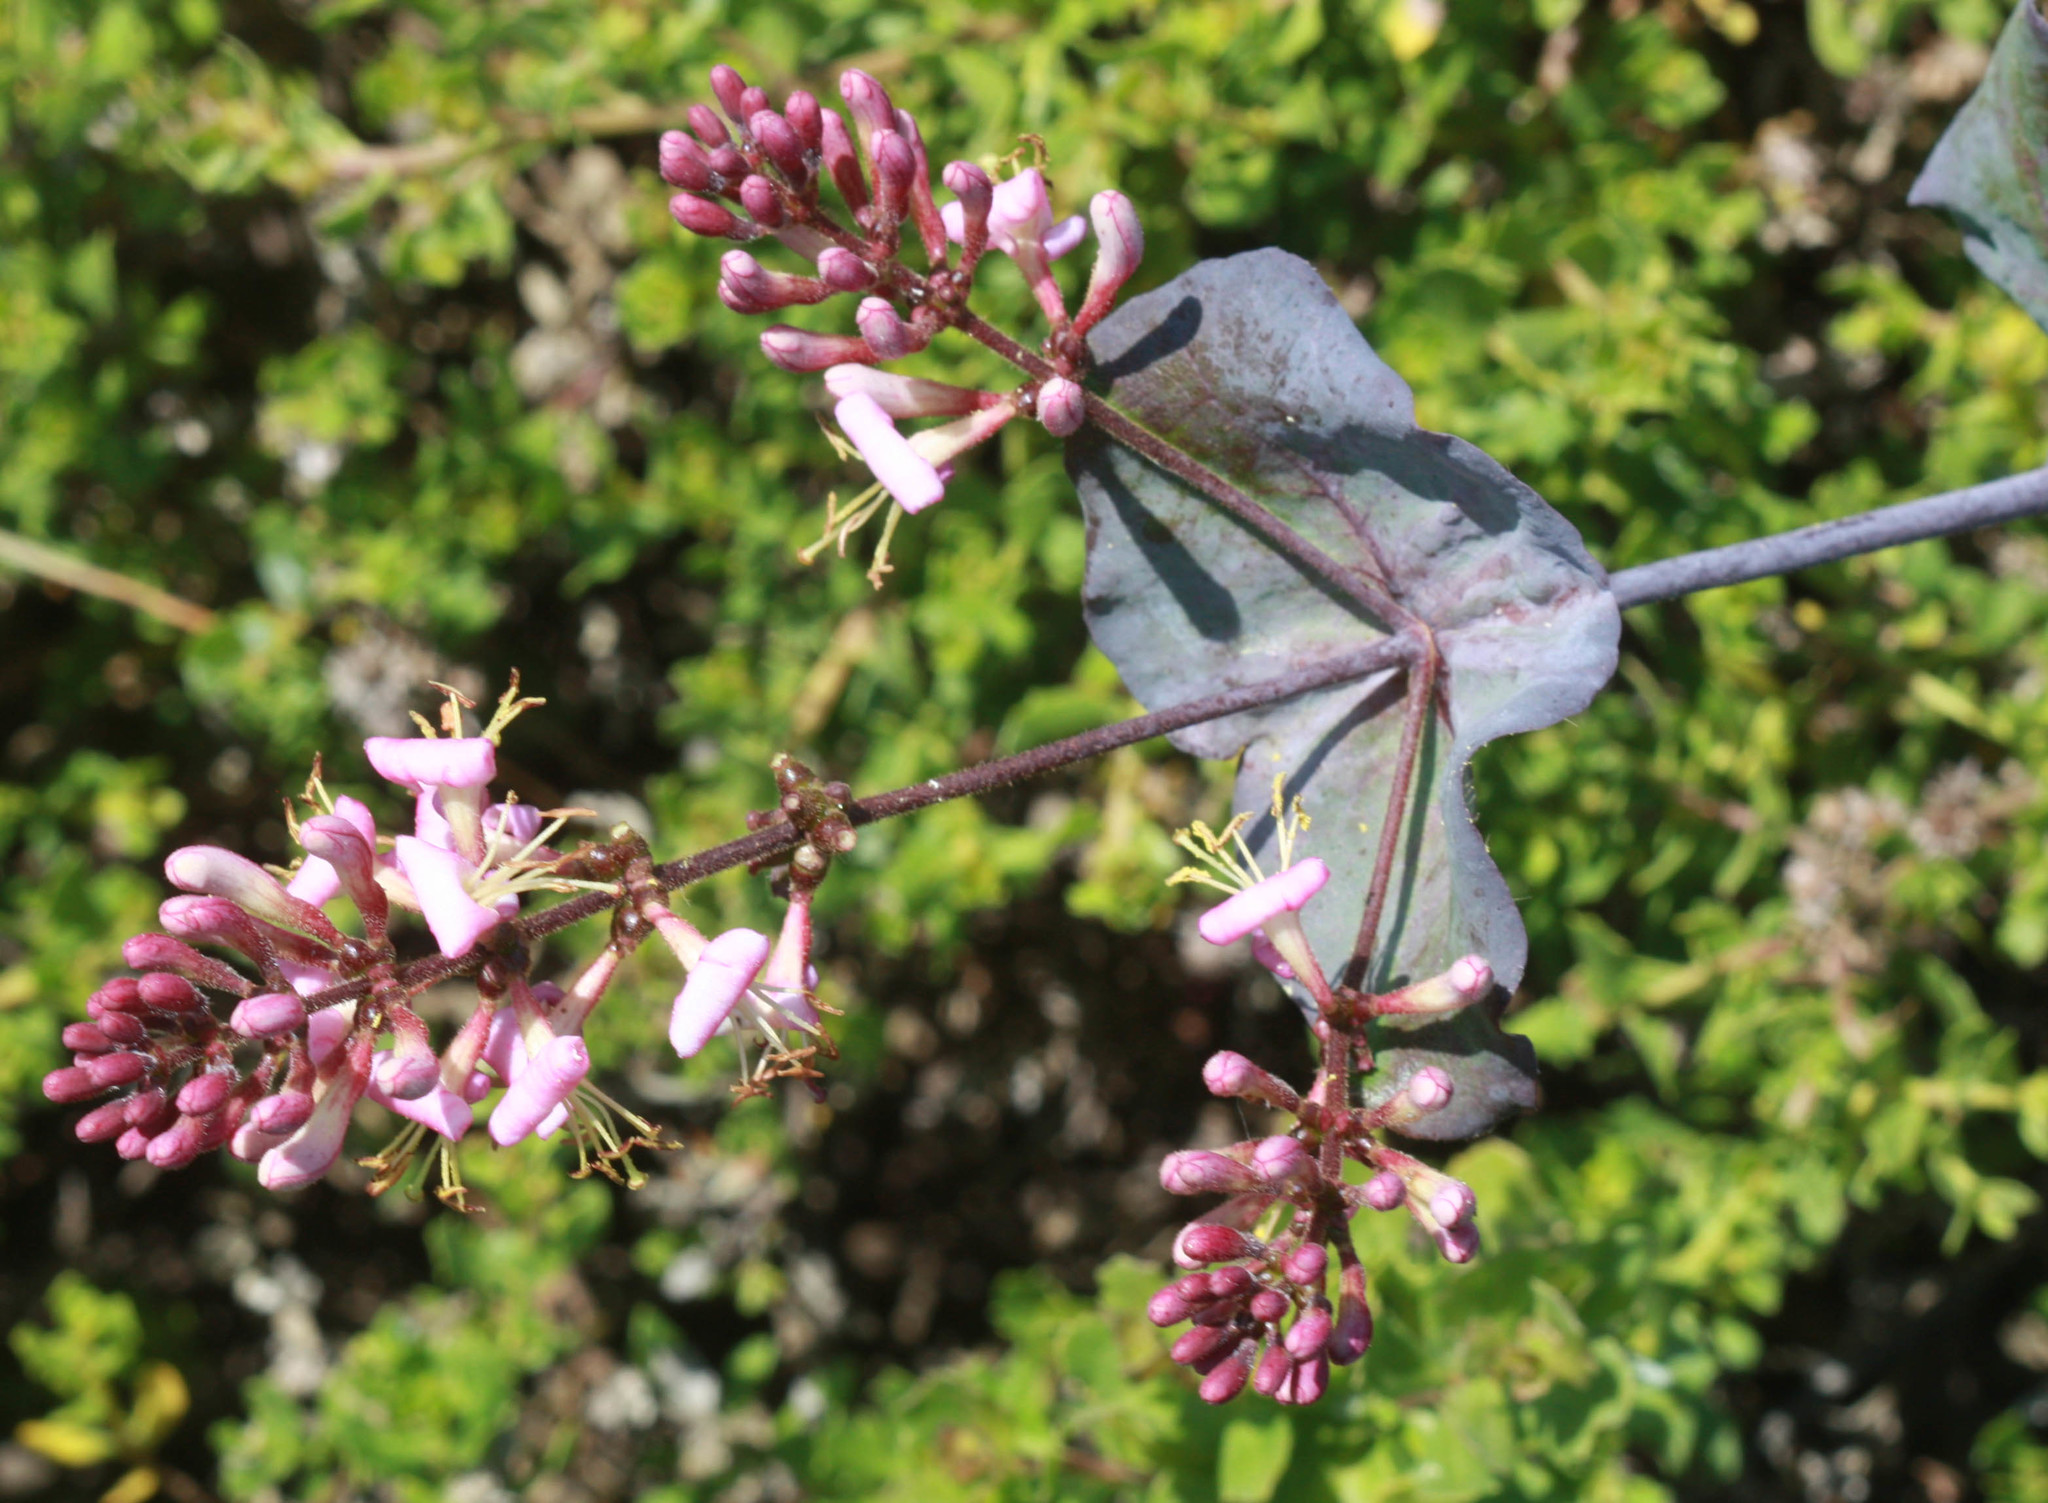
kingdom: Plantae
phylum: Tracheophyta
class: Magnoliopsida
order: Dipsacales
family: Caprifoliaceae
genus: Lonicera
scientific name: Lonicera hispidula
